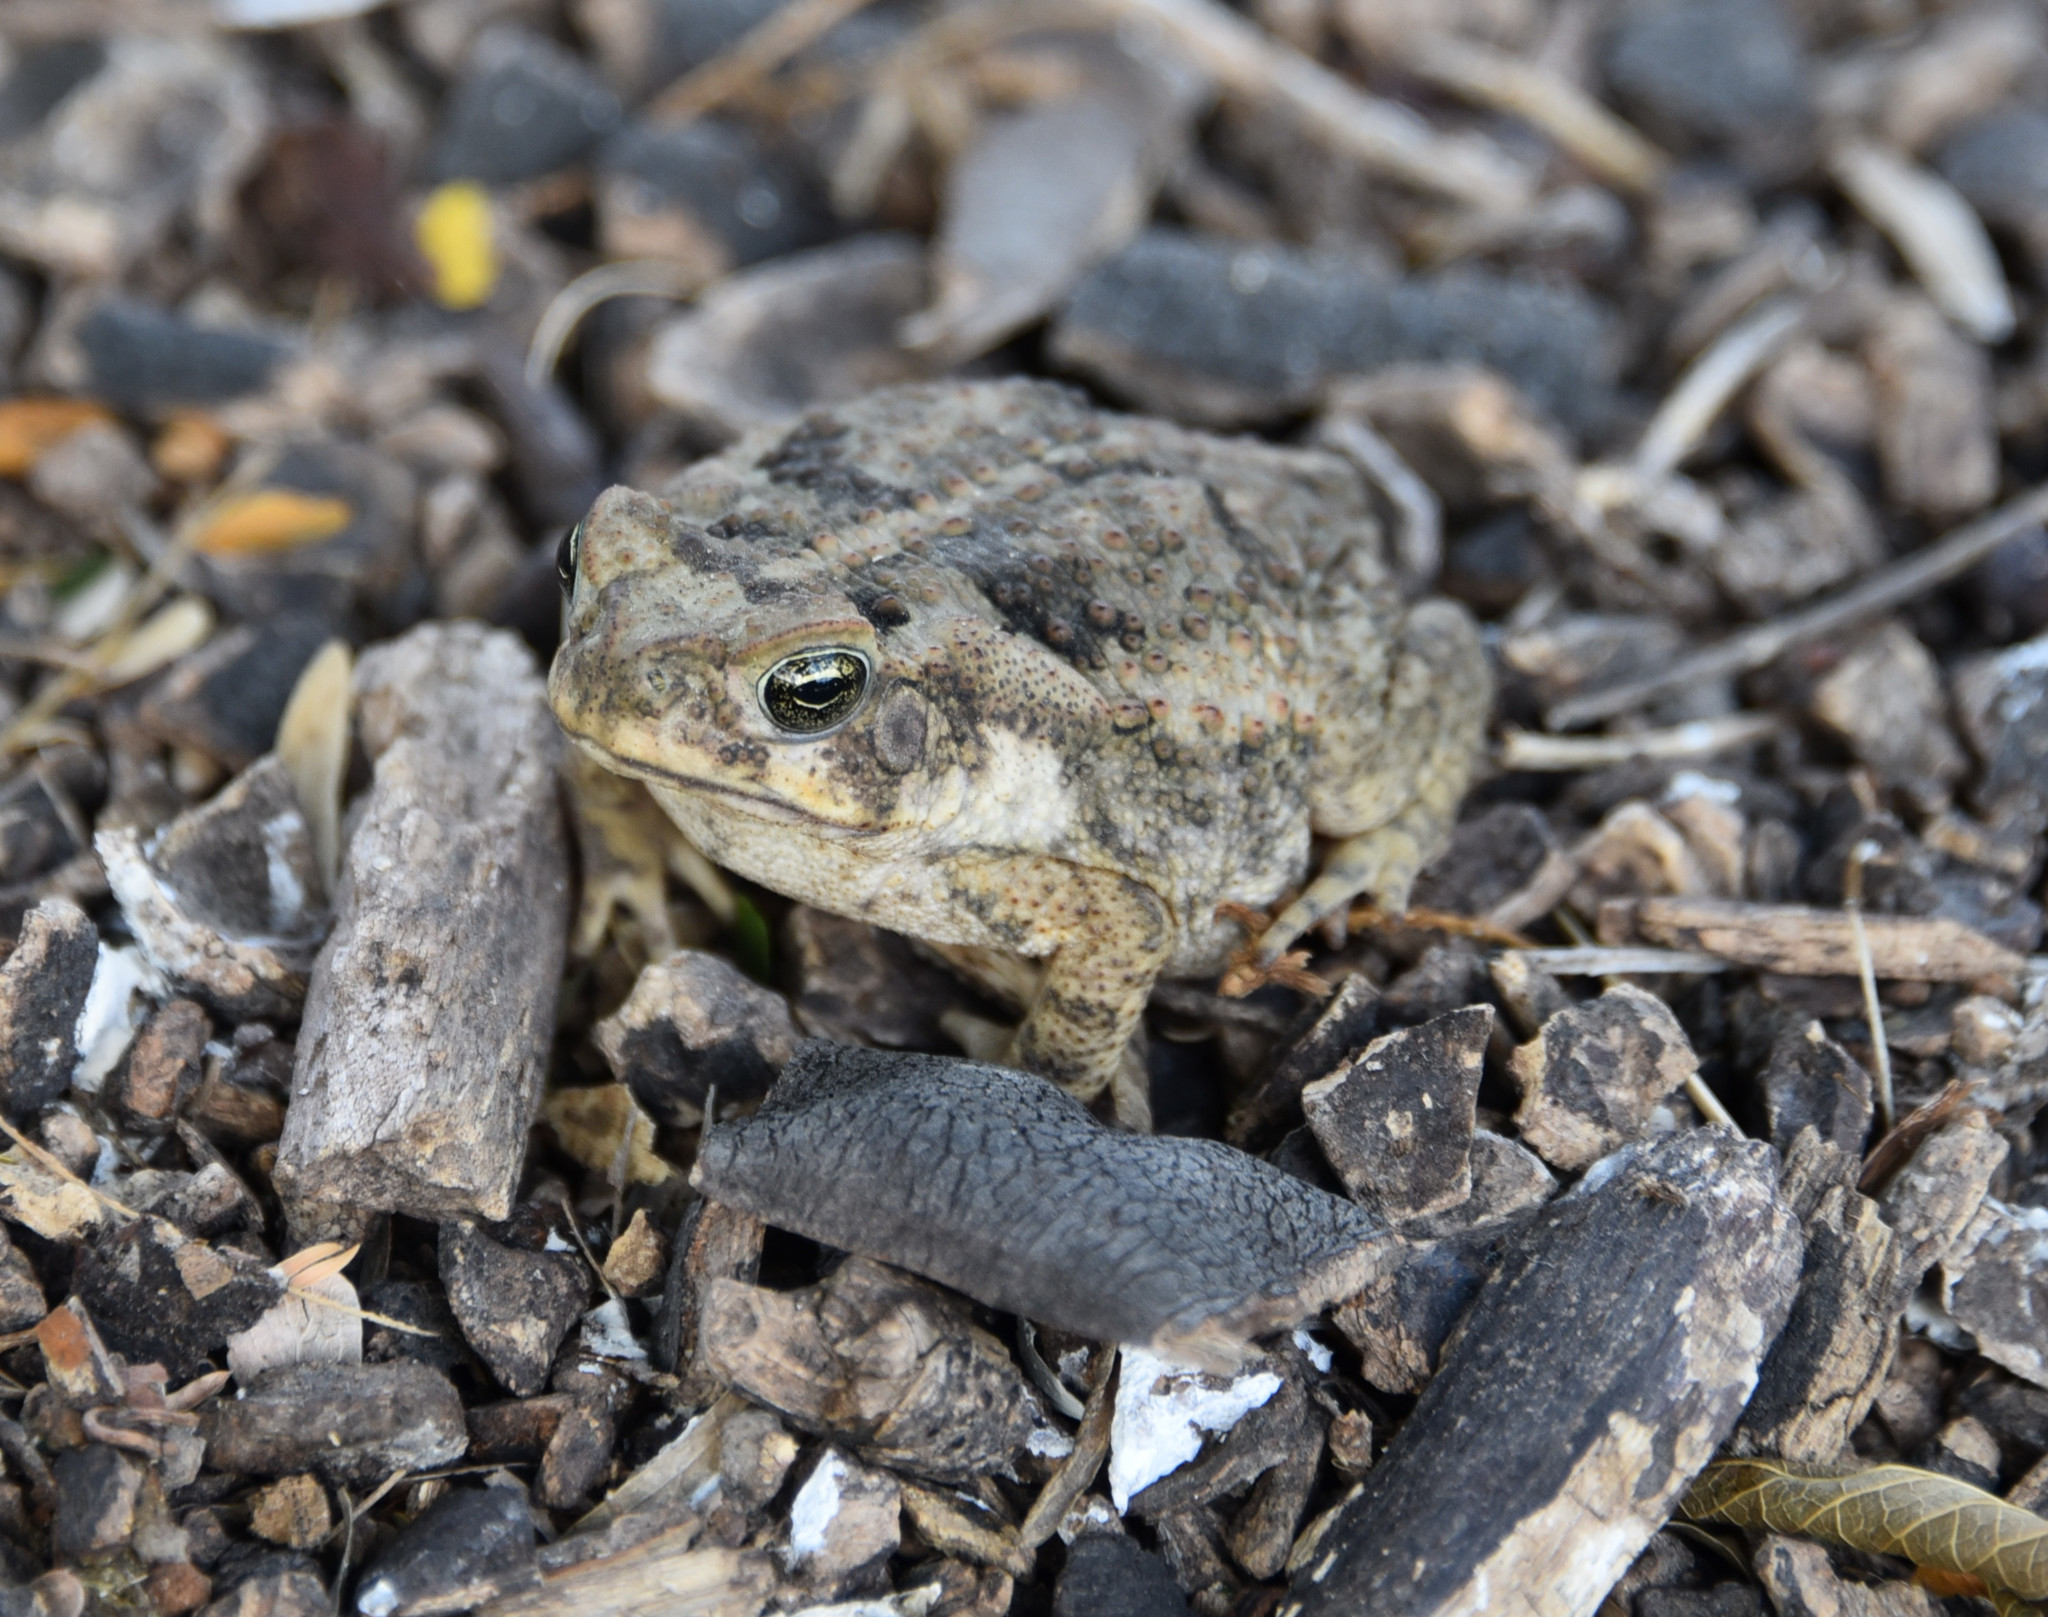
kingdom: Animalia
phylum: Chordata
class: Amphibia
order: Anura
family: Bufonidae
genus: Rhinella
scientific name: Rhinella horribilis
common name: Mesoamerican cane toad
